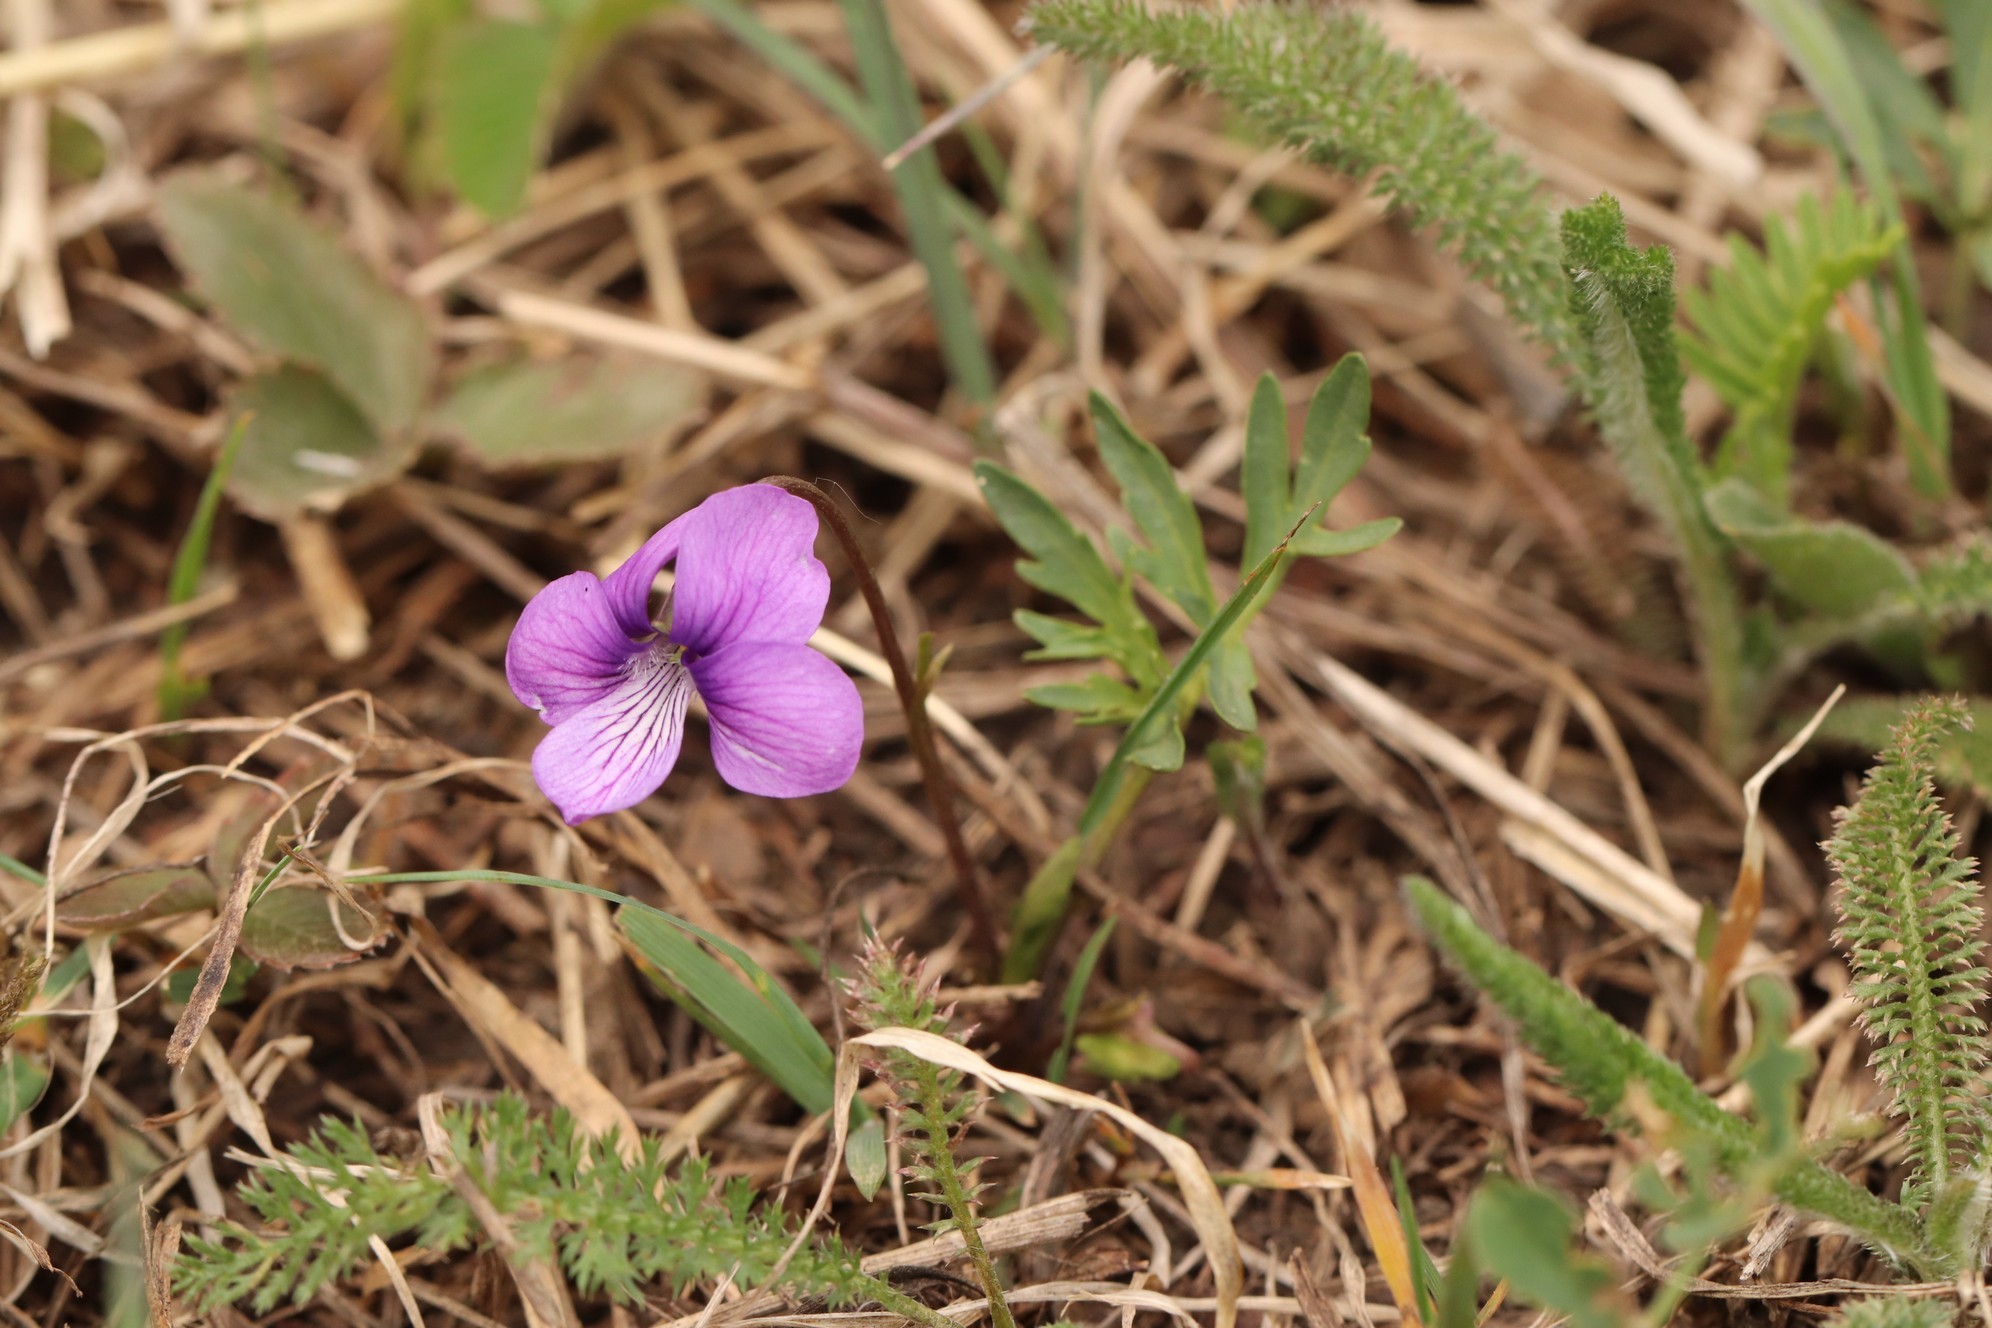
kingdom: Plantae
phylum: Tracheophyta
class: Magnoliopsida
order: Malpighiales
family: Violaceae
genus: Viola
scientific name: Viola multifida
